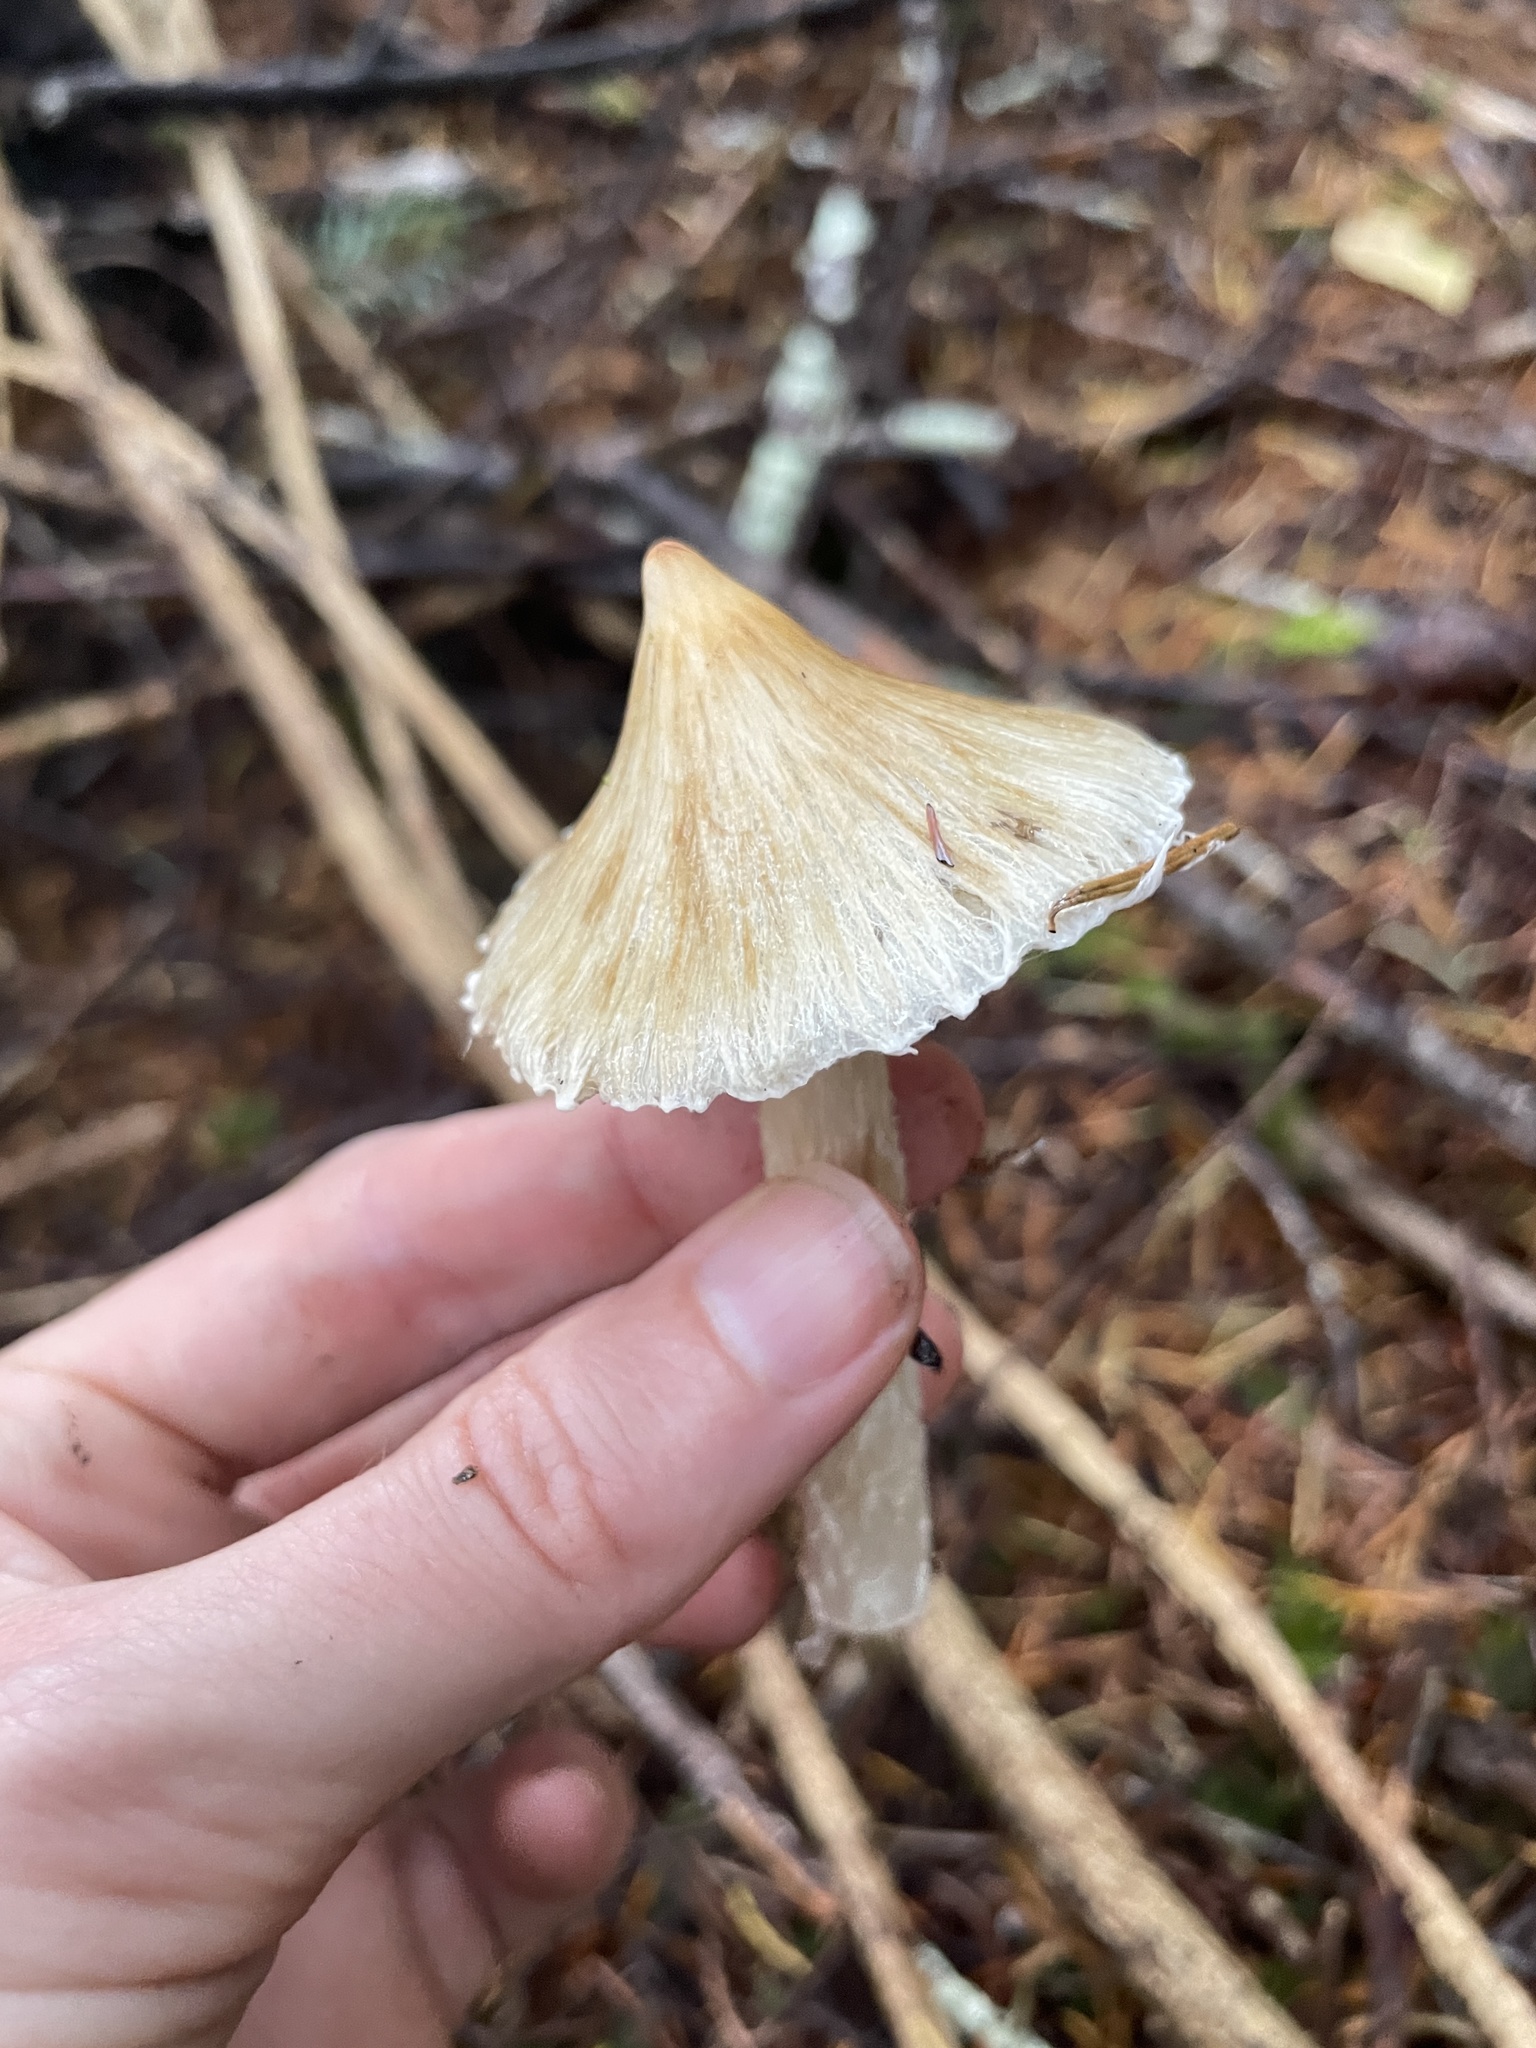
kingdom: Fungi
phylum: Basidiomycota
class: Agaricomycetes
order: Agaricales
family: Inocybaceae
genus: Pseudosperma
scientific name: Pseudosperma sororium
